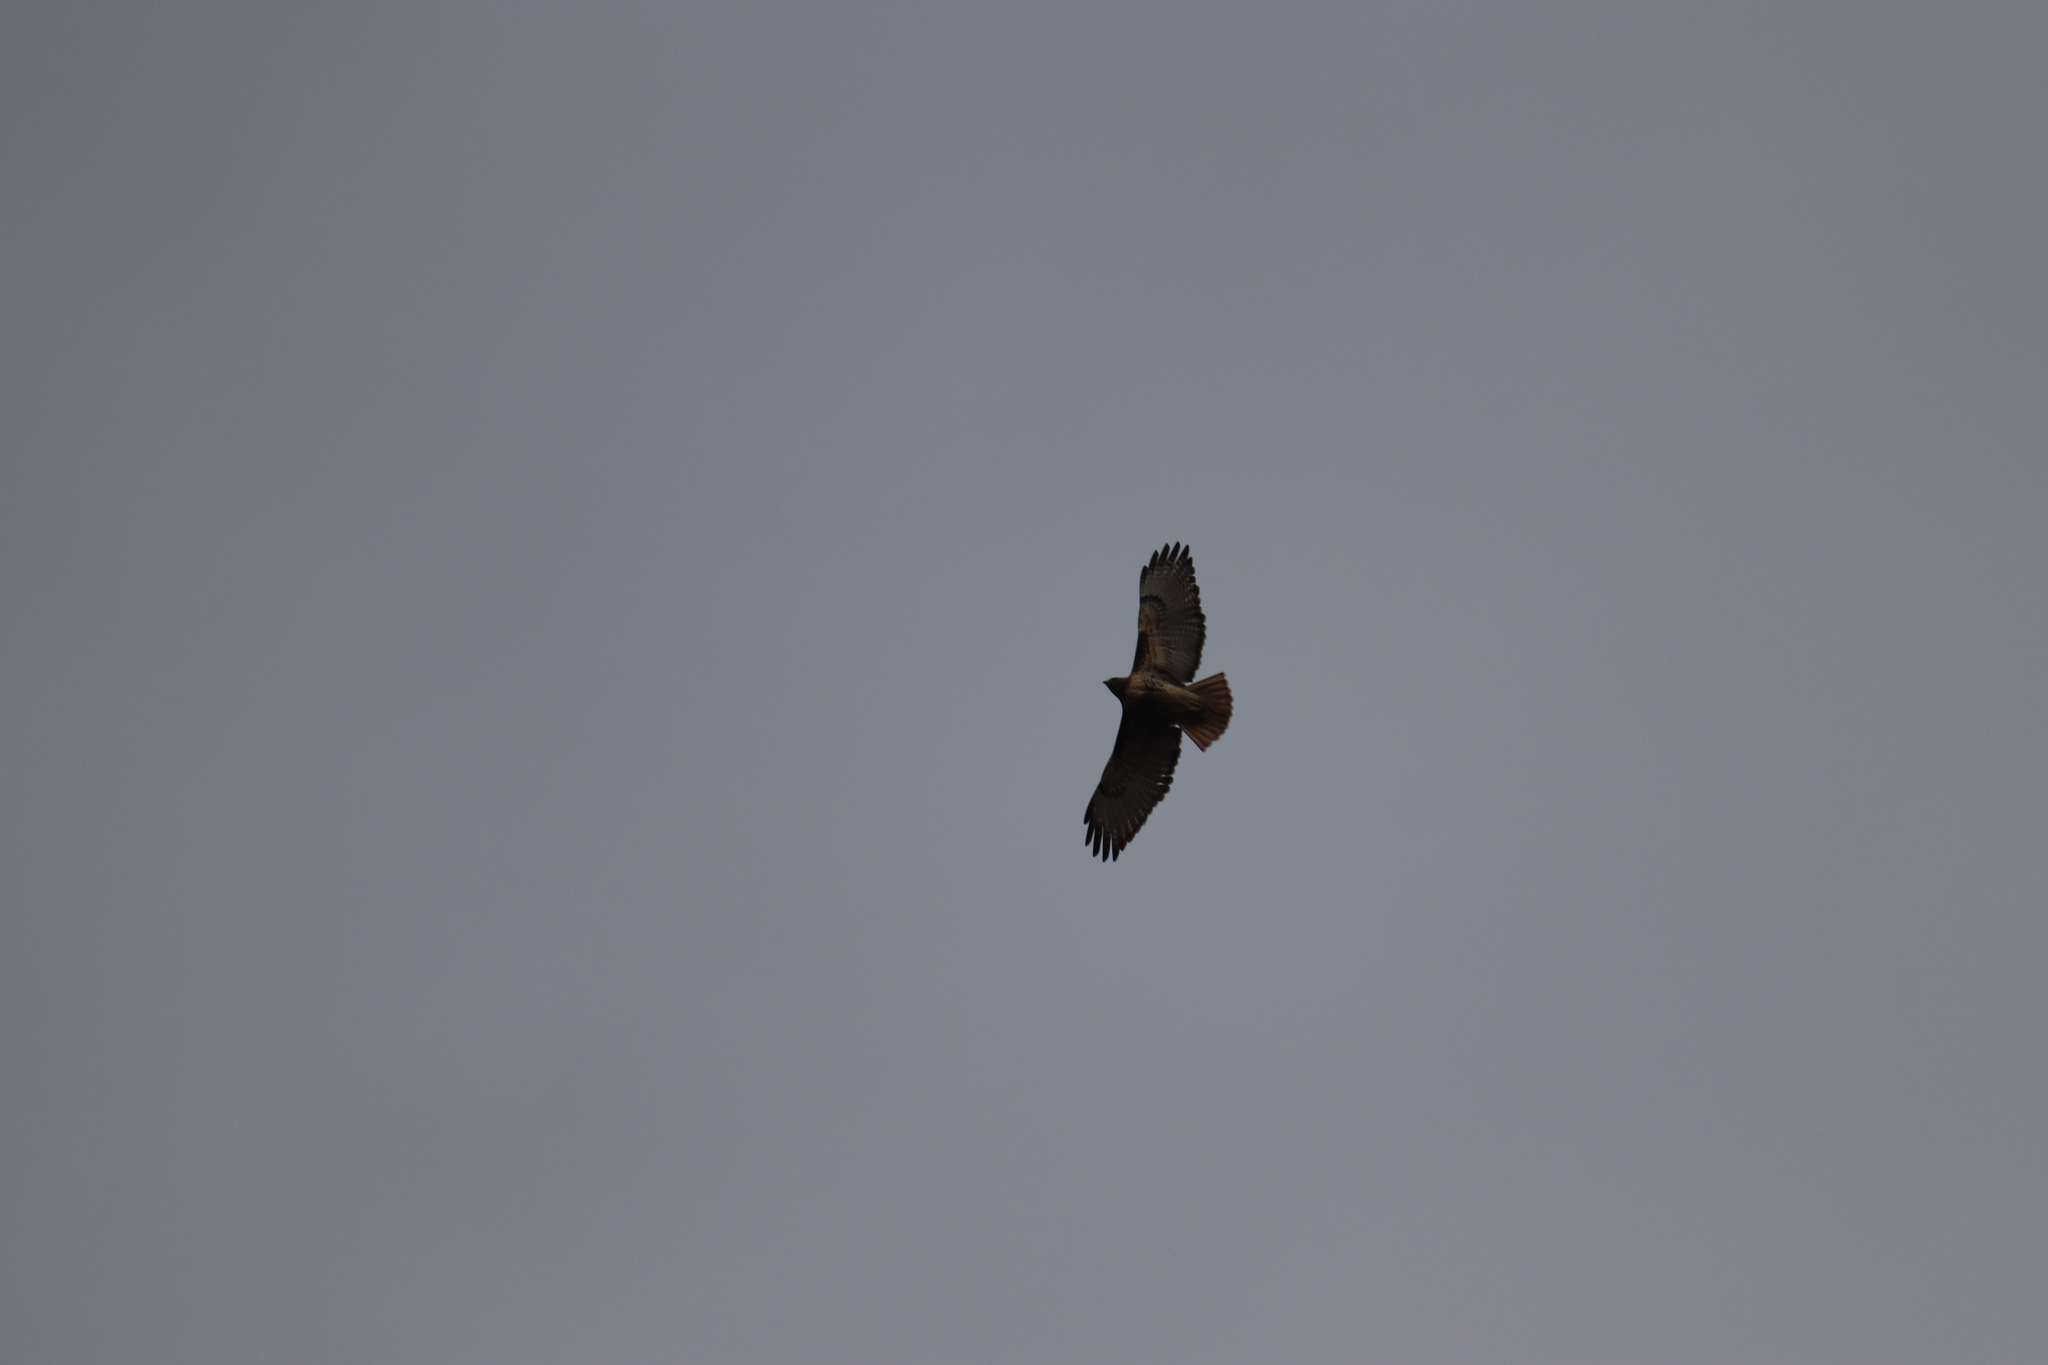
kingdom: Animalia
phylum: Chordata
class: Aves
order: Accipitriformes
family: Accipitridae
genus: Buteo
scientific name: Buteo jamaicensis
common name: Red-tailed hawk
